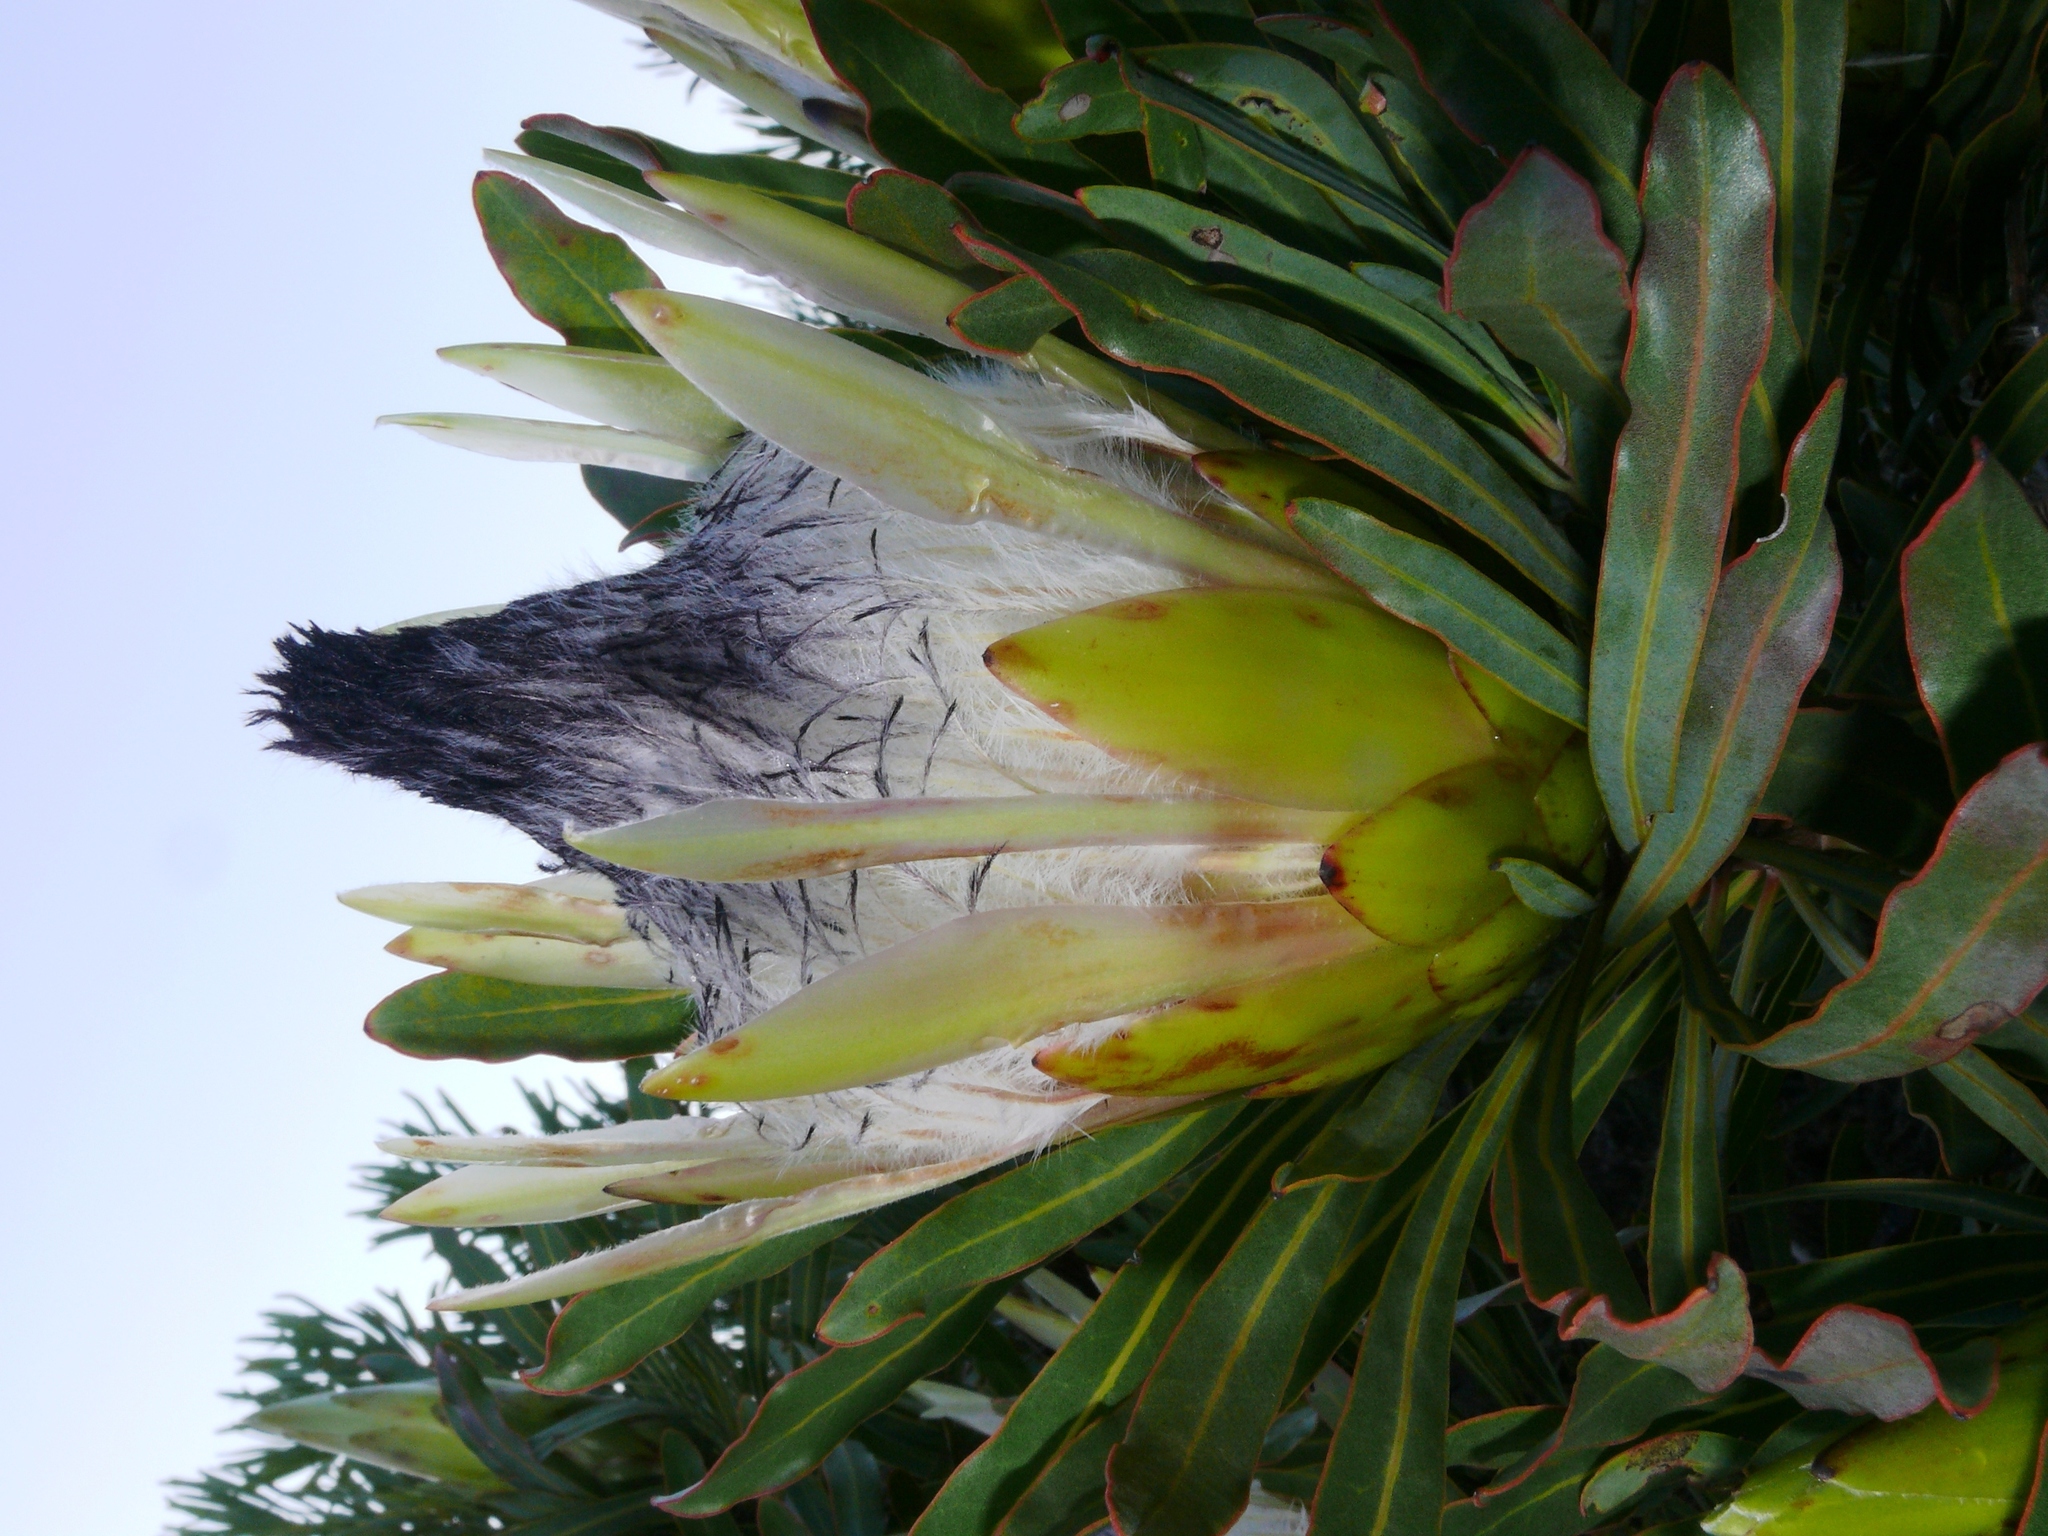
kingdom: Plantae
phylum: Tracheophyta
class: Magnoliopsida
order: Proteales
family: Proteaceae
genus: Protea
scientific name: Protea longifolia
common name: Long-leaf sugarbush
